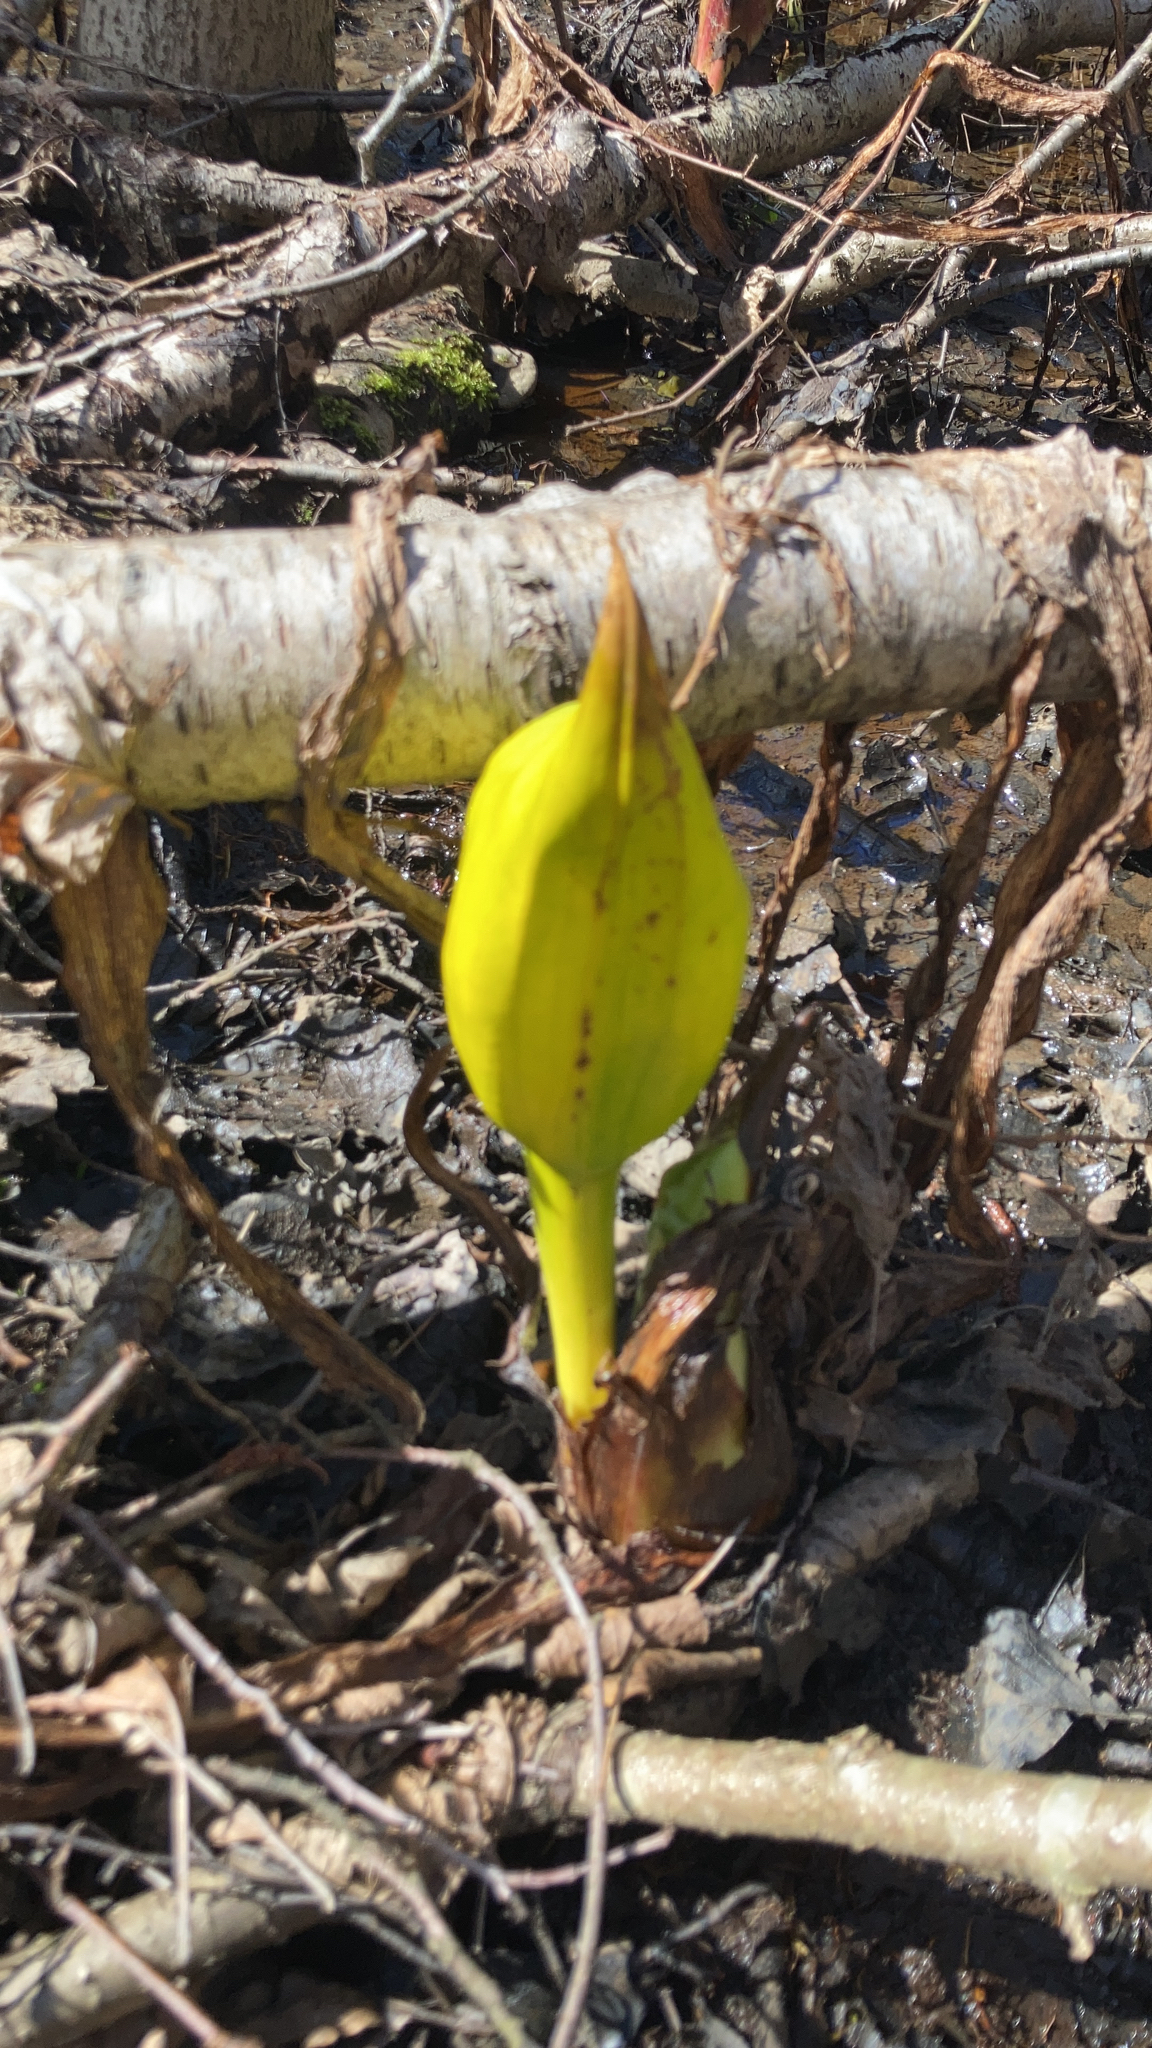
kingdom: Plantae
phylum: Tracheophyta
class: Liliopsida
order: Alismatales
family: Araceae
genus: Lysichiton
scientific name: Lysichiton americanus
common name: American skunk cabbage
